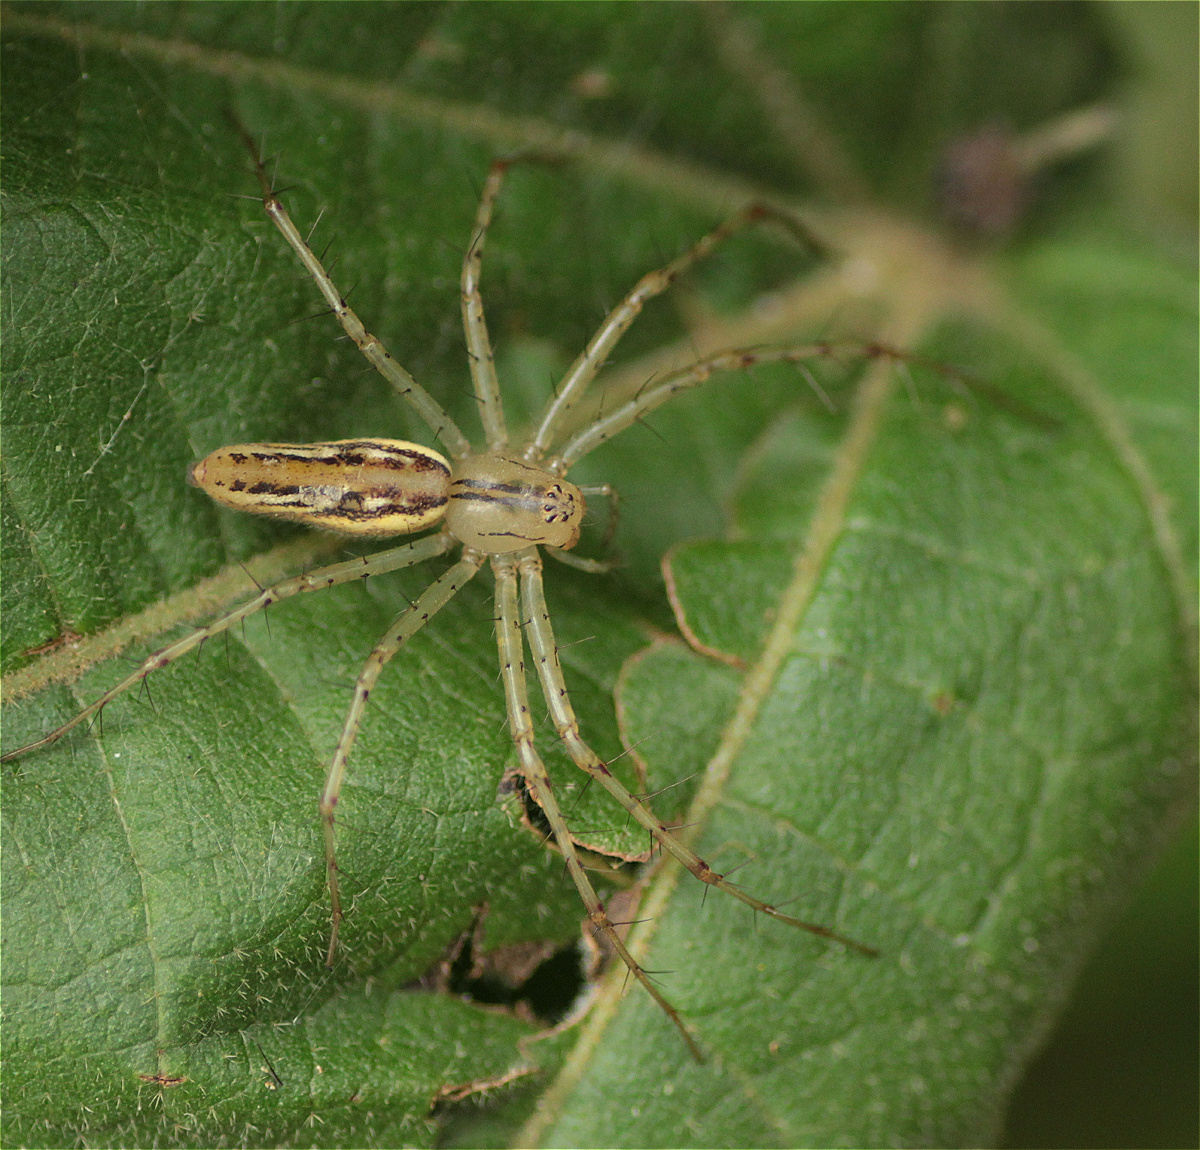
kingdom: Animalia
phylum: Arthropoda
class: Arachnida
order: Araneae
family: Oxyopidae
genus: Peucetia
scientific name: Peucetia rubrolineata
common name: Lynx spiders
